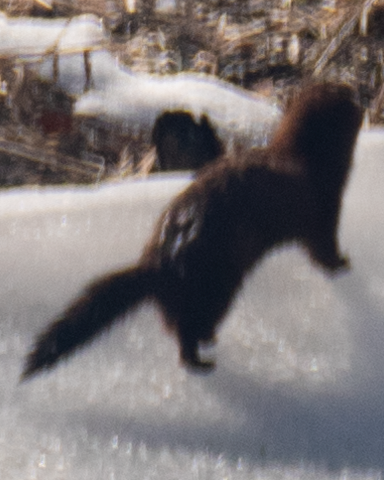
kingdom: Animalia
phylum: Chordata
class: Mammalia
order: Carnivora
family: Mustelidae
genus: Mustela
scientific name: Mustela
